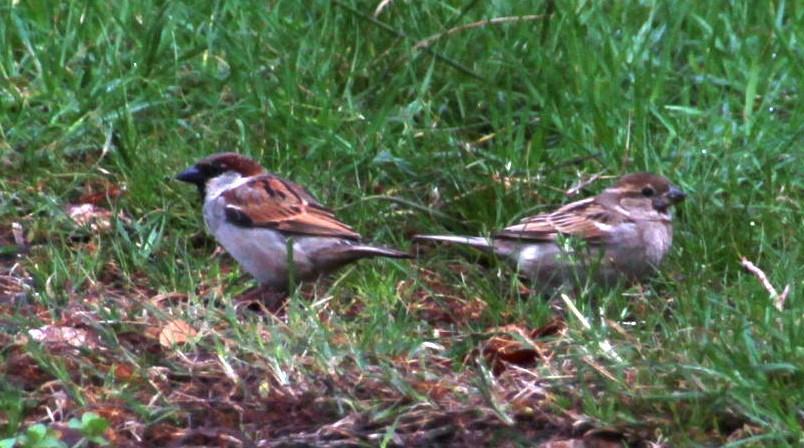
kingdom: Animalia
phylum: Chordata
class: Aves
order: Passeriformes
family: Passeridae
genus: Passer
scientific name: Passer domesticus
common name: House sparrow
